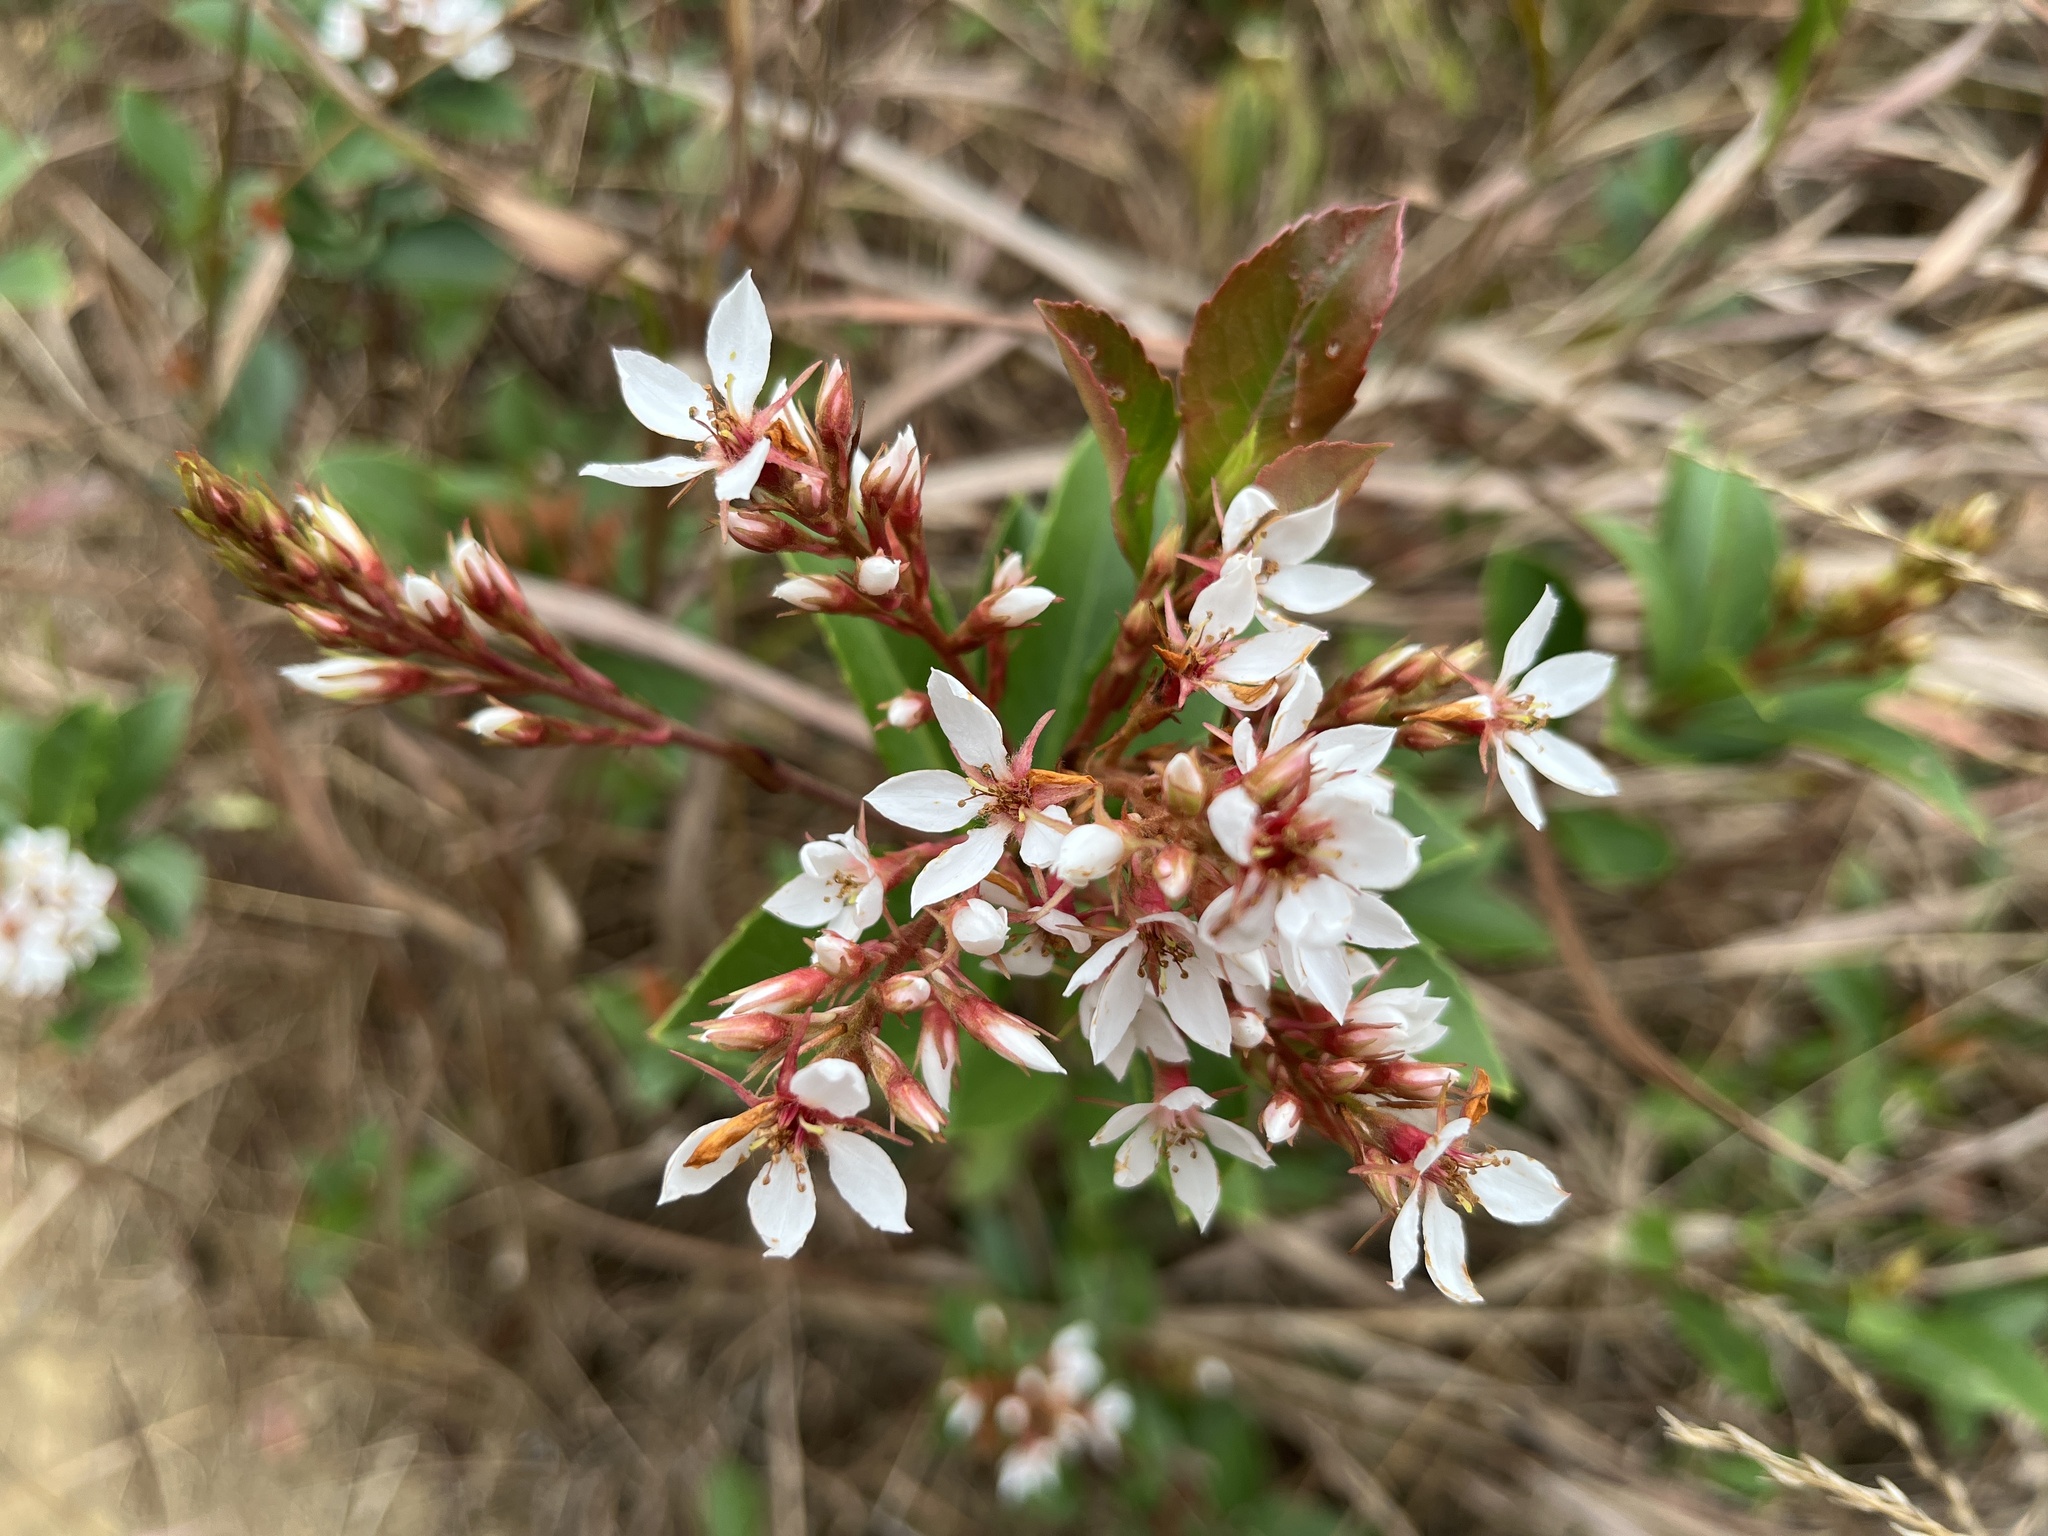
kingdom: Plantae
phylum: Tracheophyta
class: Magnoliopsida
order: Rosales
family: Rosaceae
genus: Rhaphiolepis
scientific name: Rhaphiolepis indica
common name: India-hawthorn
